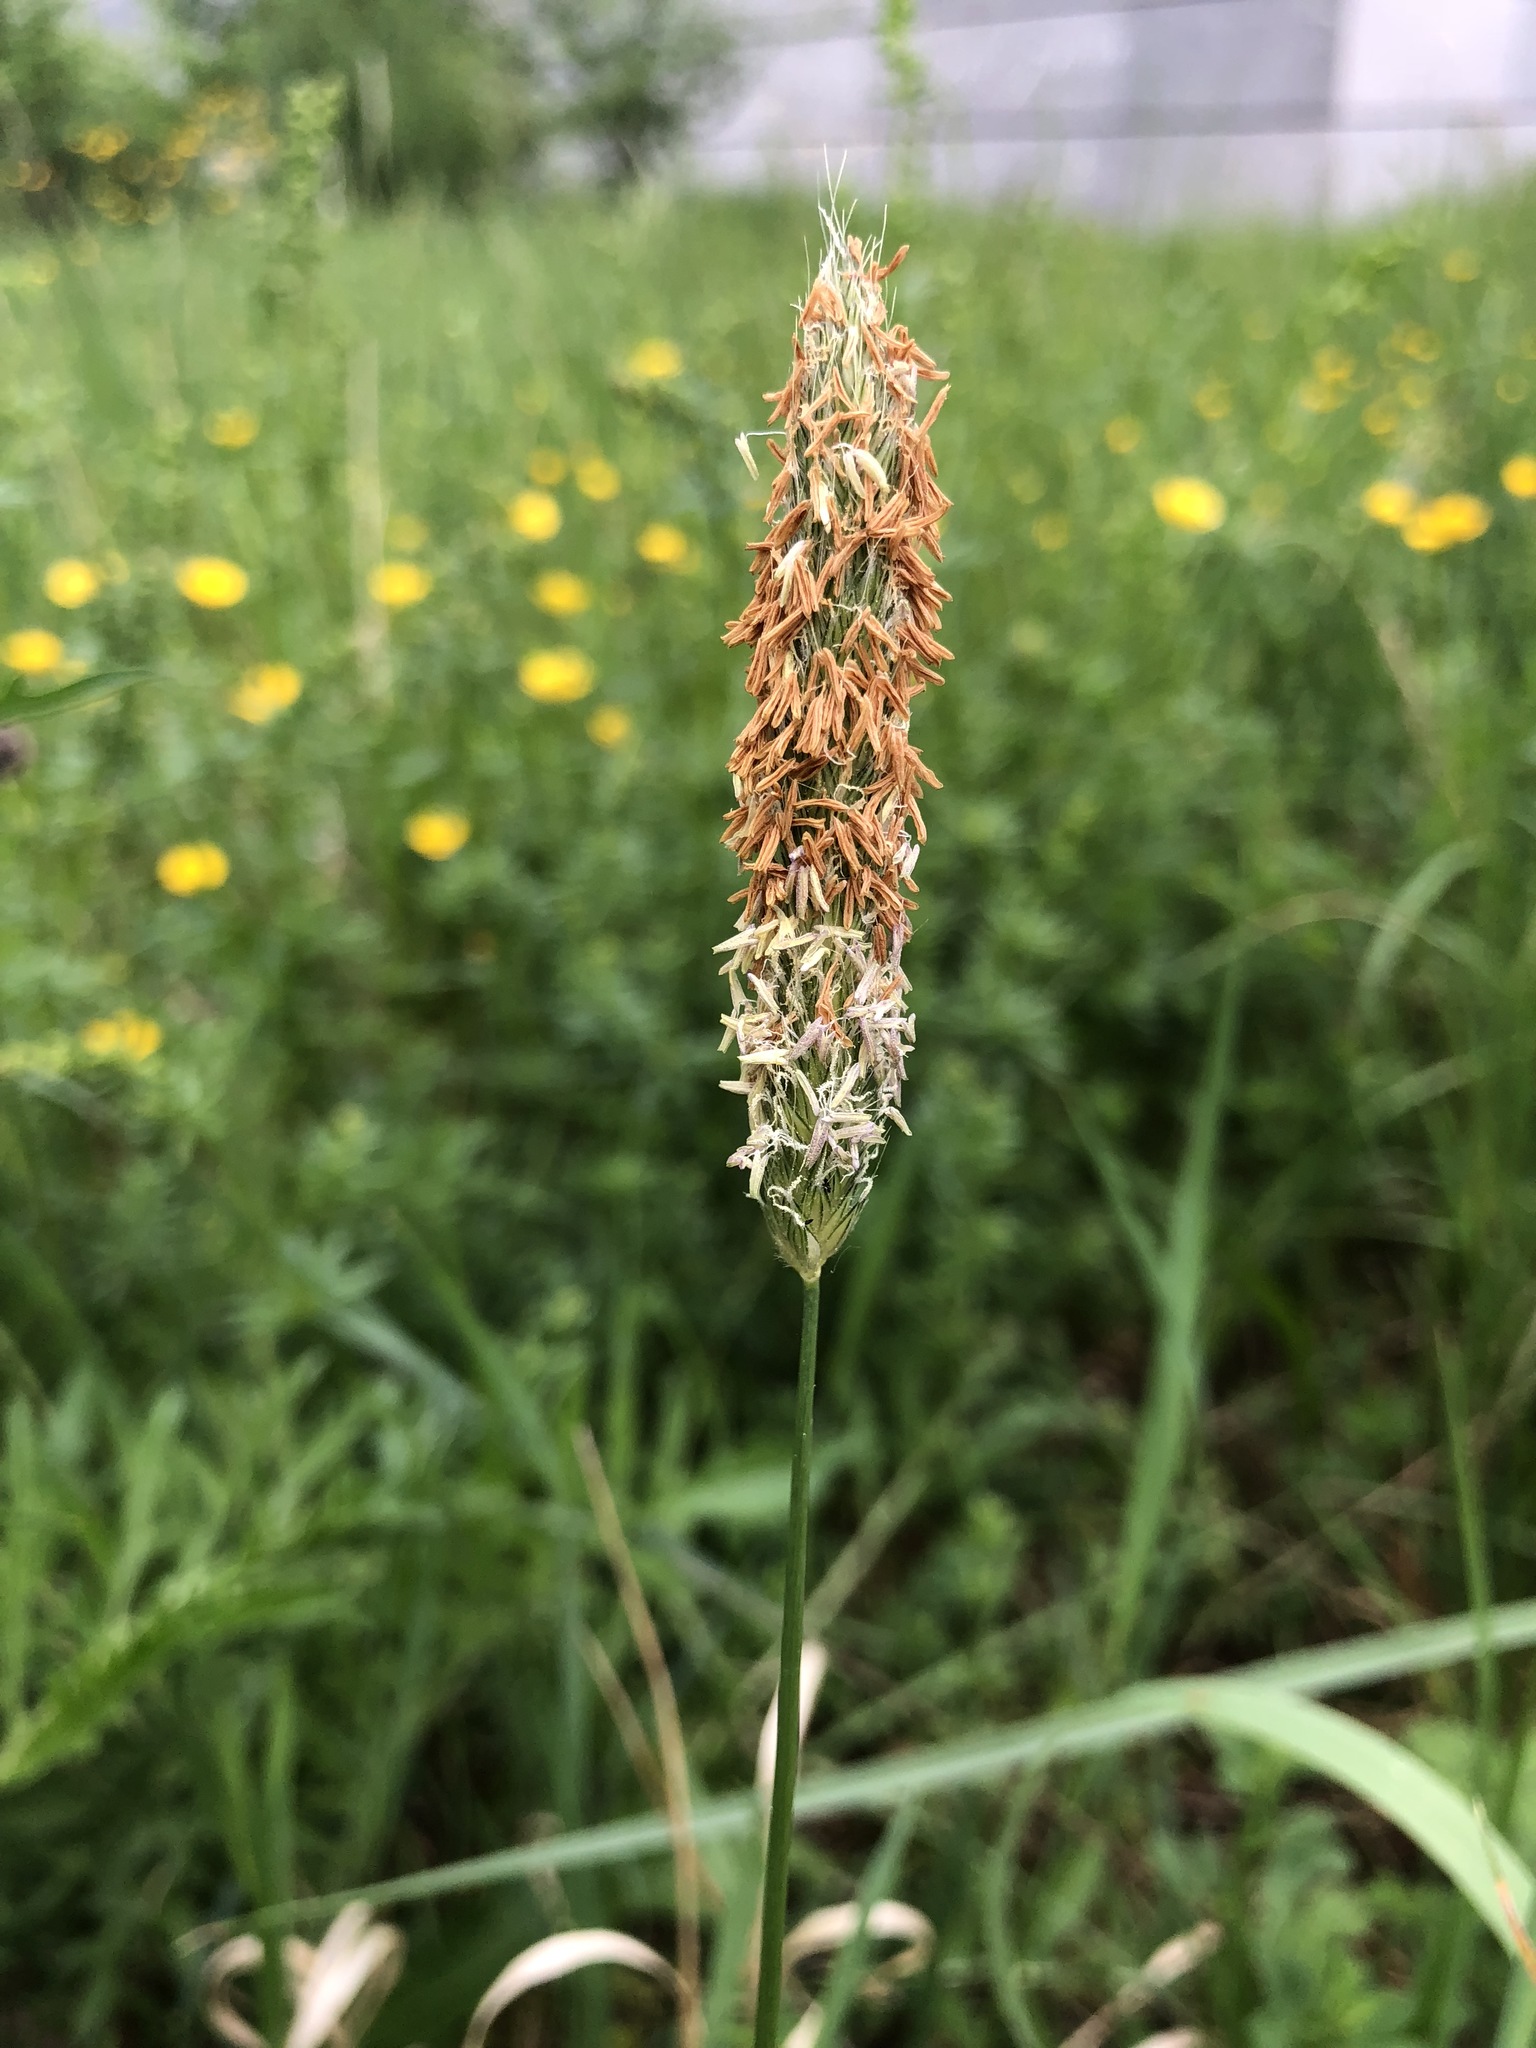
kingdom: Plantae
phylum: Tracheophyta
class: Liliopsida
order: Poales
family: Poaceae
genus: Alopecurus
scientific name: Alopecurus pratensis
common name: Meadow foxtail
